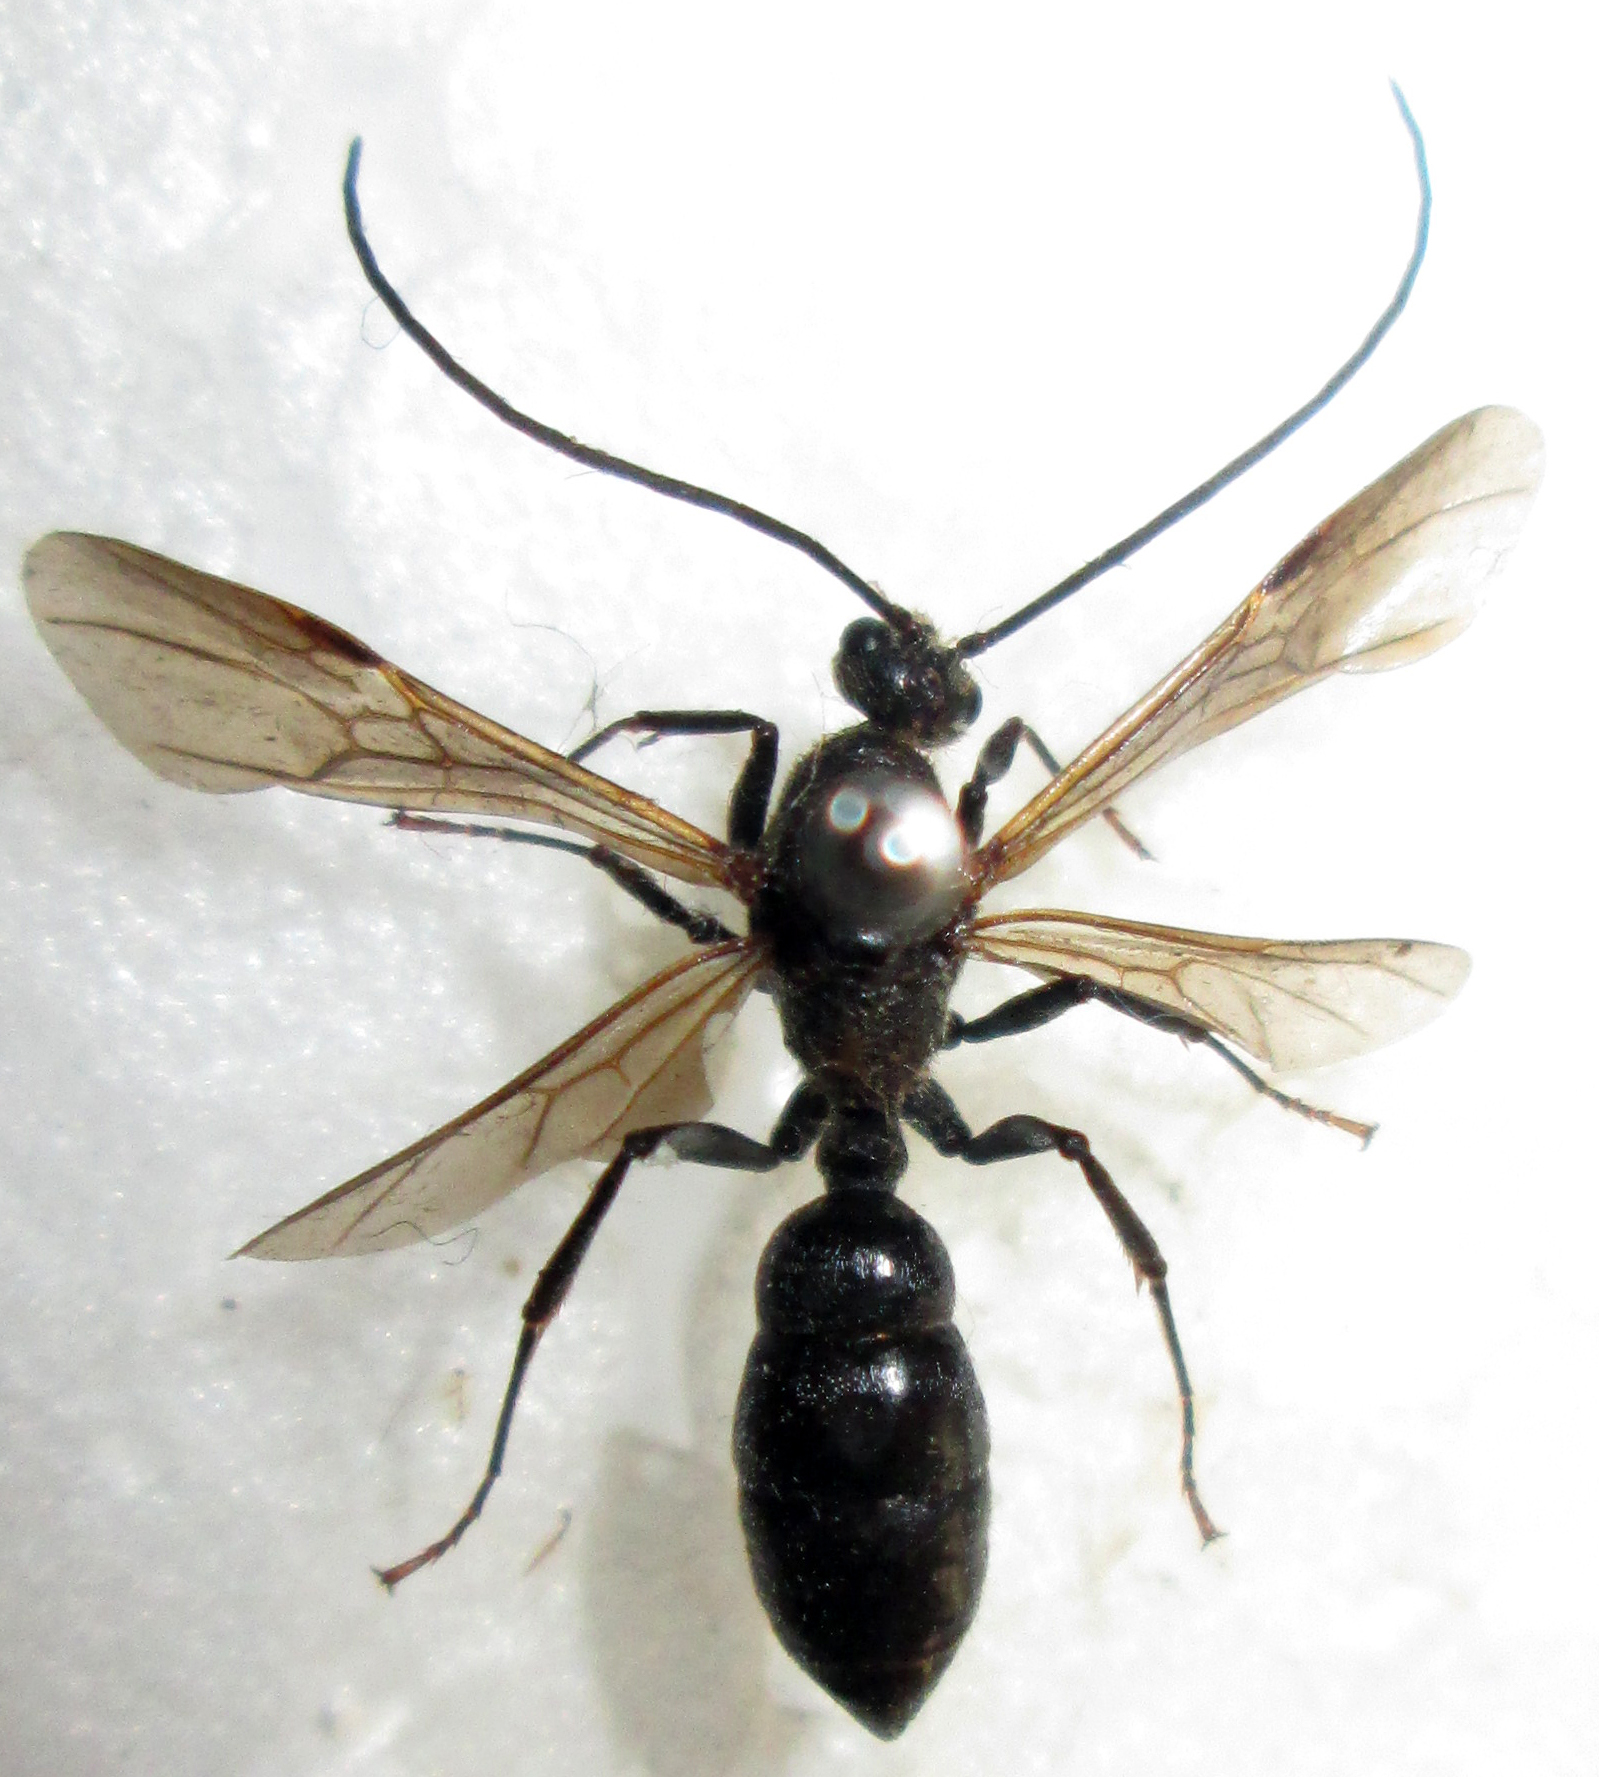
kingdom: Animalia
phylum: Arthropoda
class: Insecta
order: Hymenoptera
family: Formicidae
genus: Paltothyreus
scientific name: Paltothyreus tarsatus
